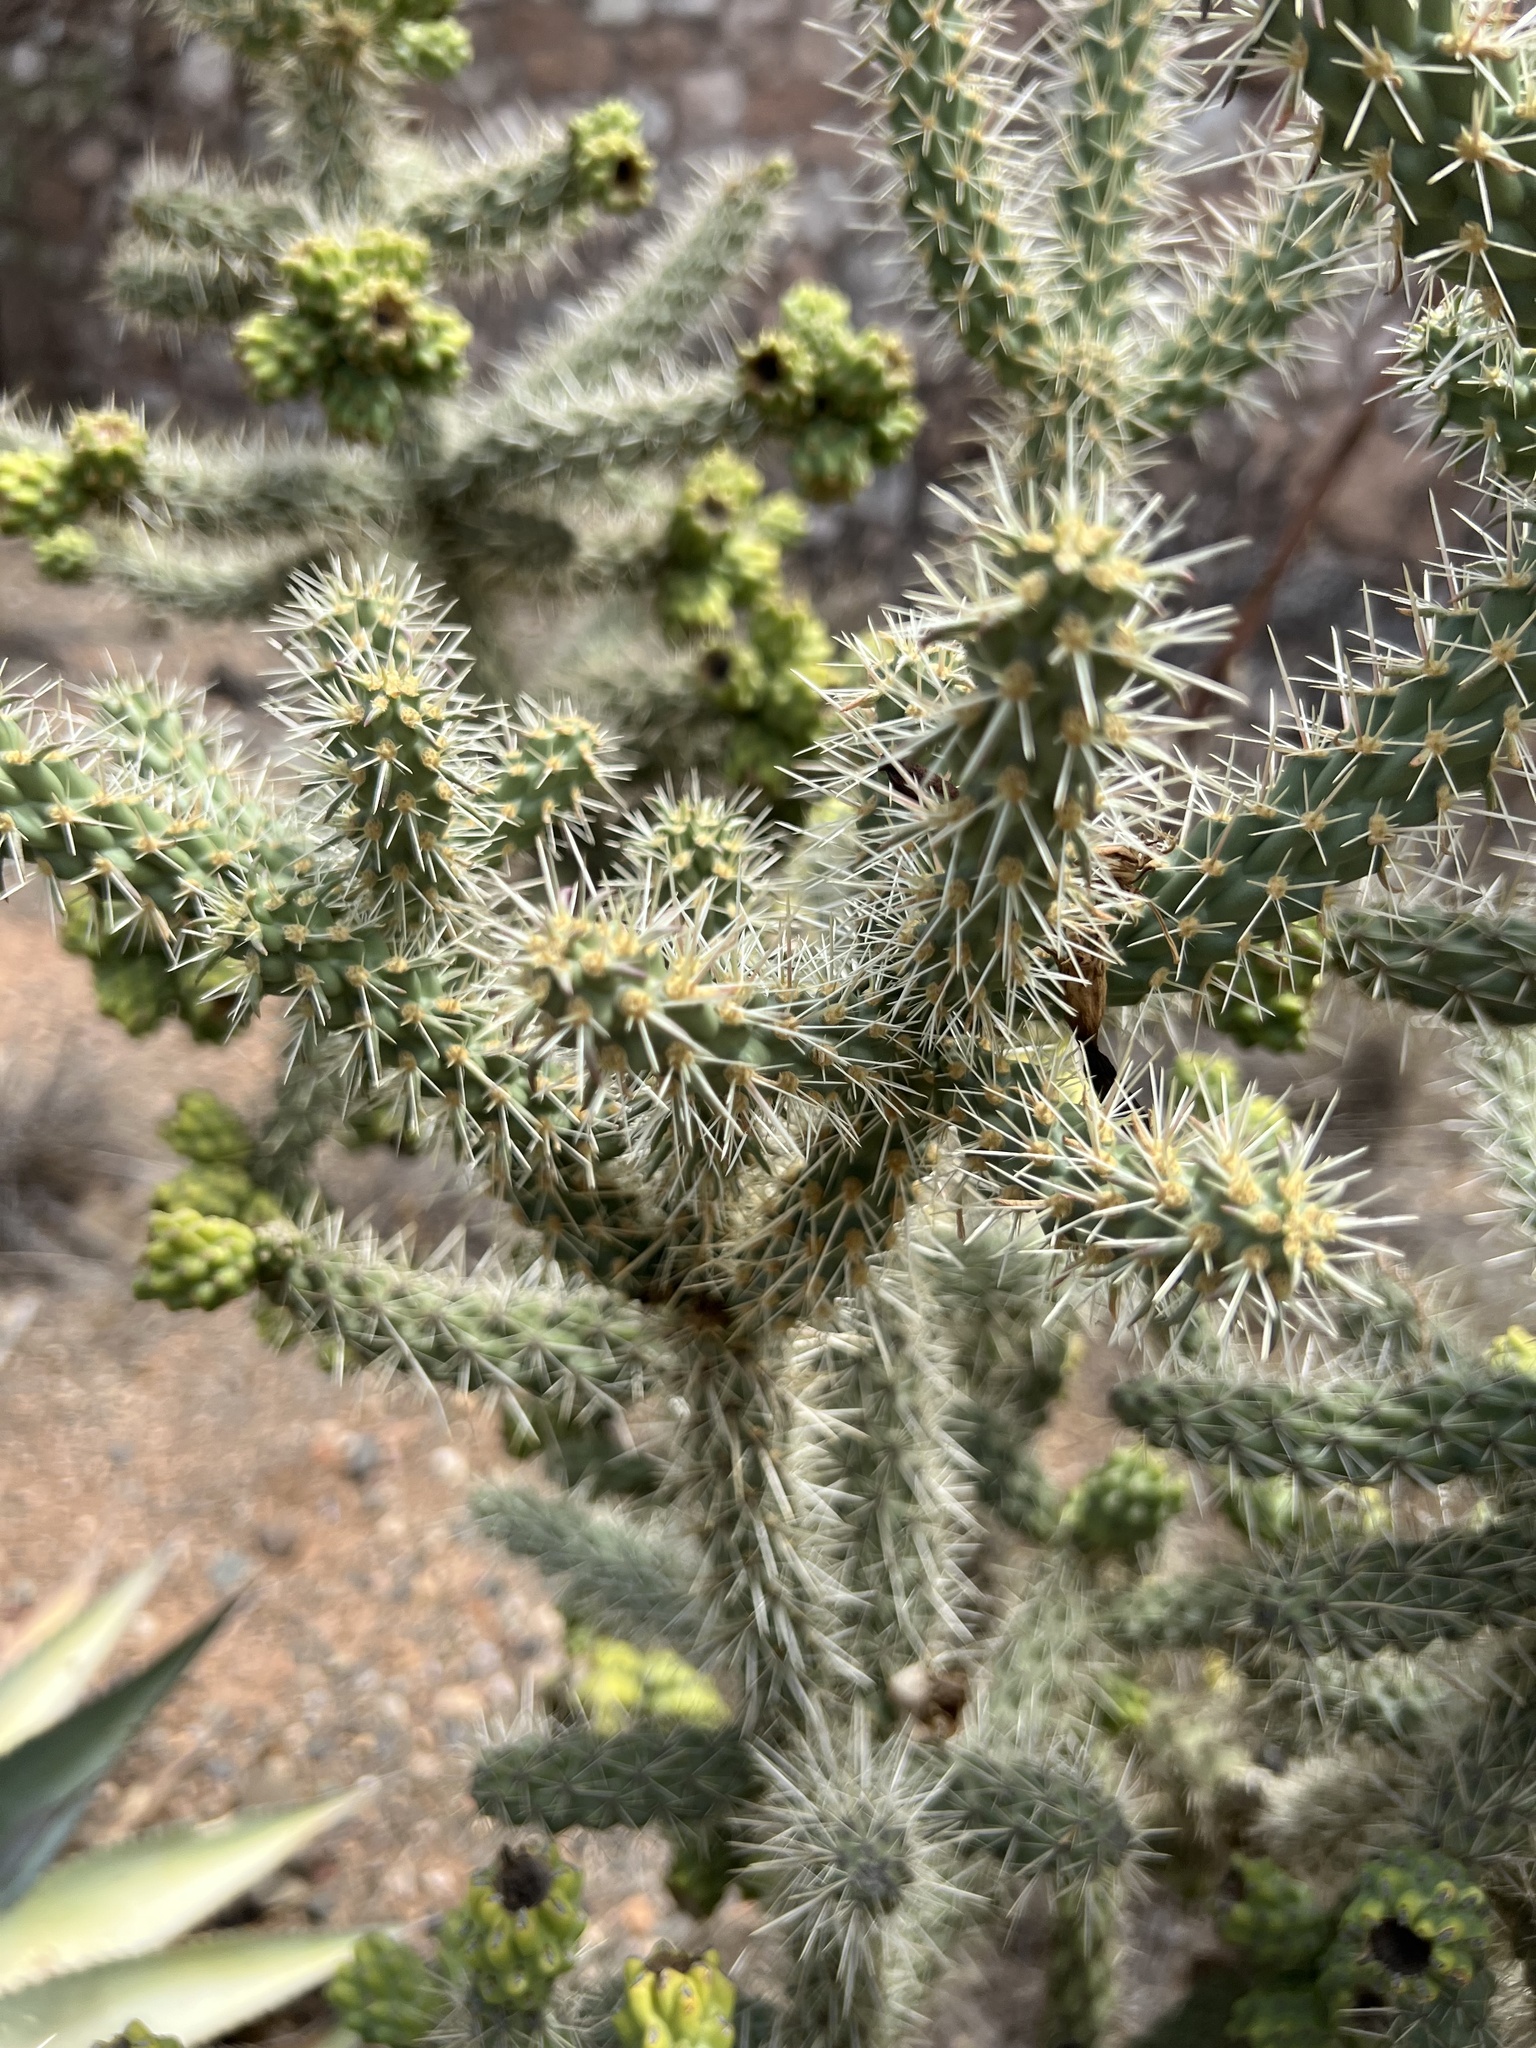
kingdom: Plantae
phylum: Tracheophyta
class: Magnoliopsida
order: Caryophyllales
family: Cactaceae
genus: Cylindropuntia
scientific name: Cylindropuntia whipplei
